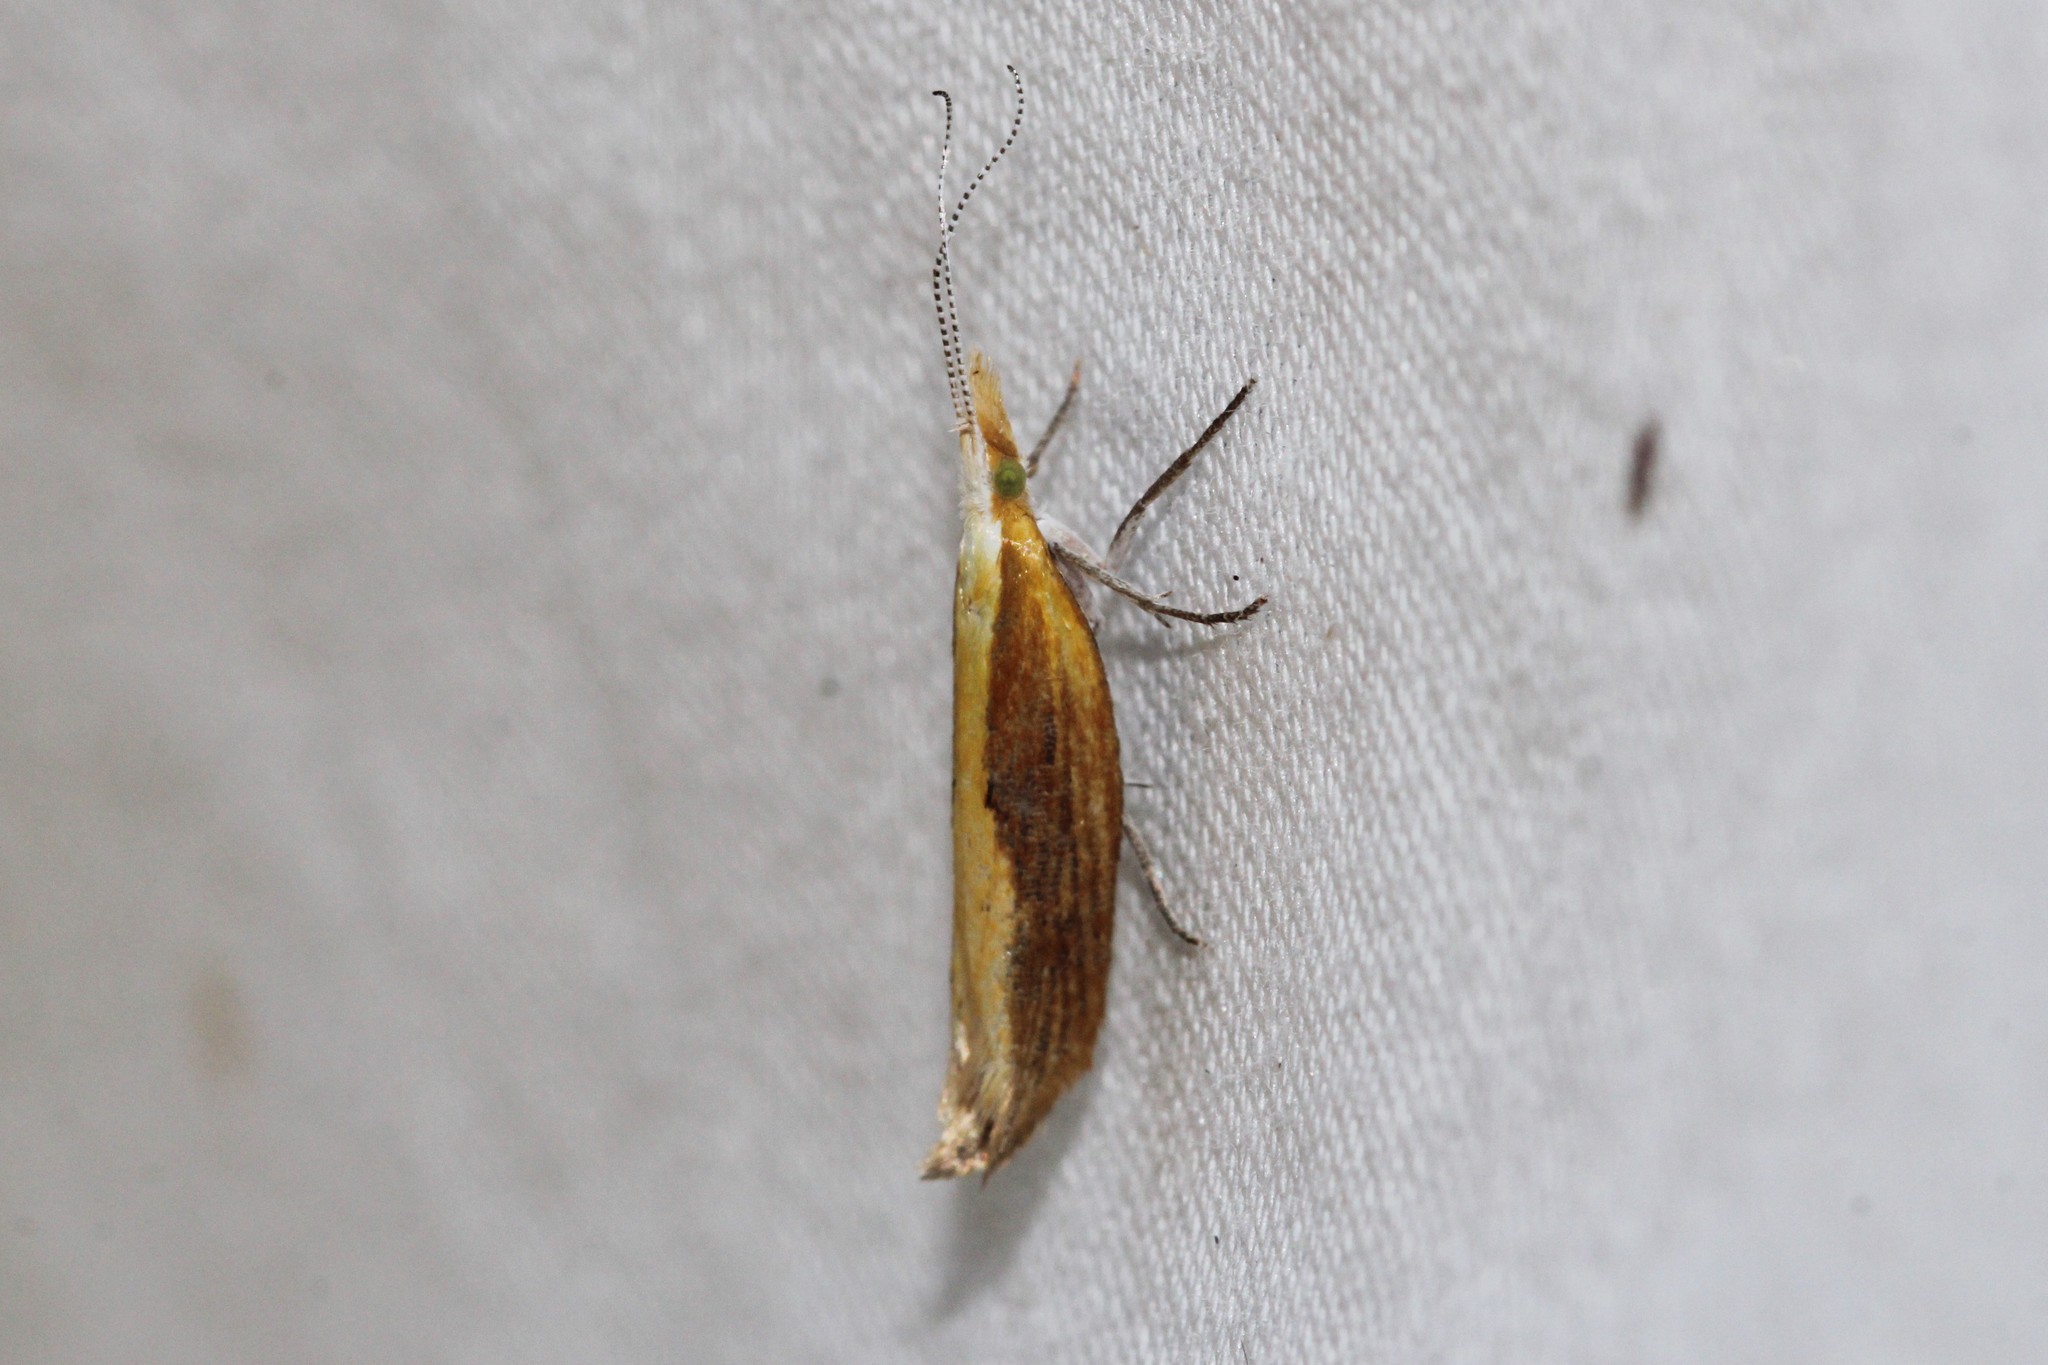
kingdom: Animalia
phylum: Arthropoda
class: Insecta
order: Lepidoptera
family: Ypsolophidae
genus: Ypsolopha
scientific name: Ypsolopha dentella
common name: Honeysuckle moth
